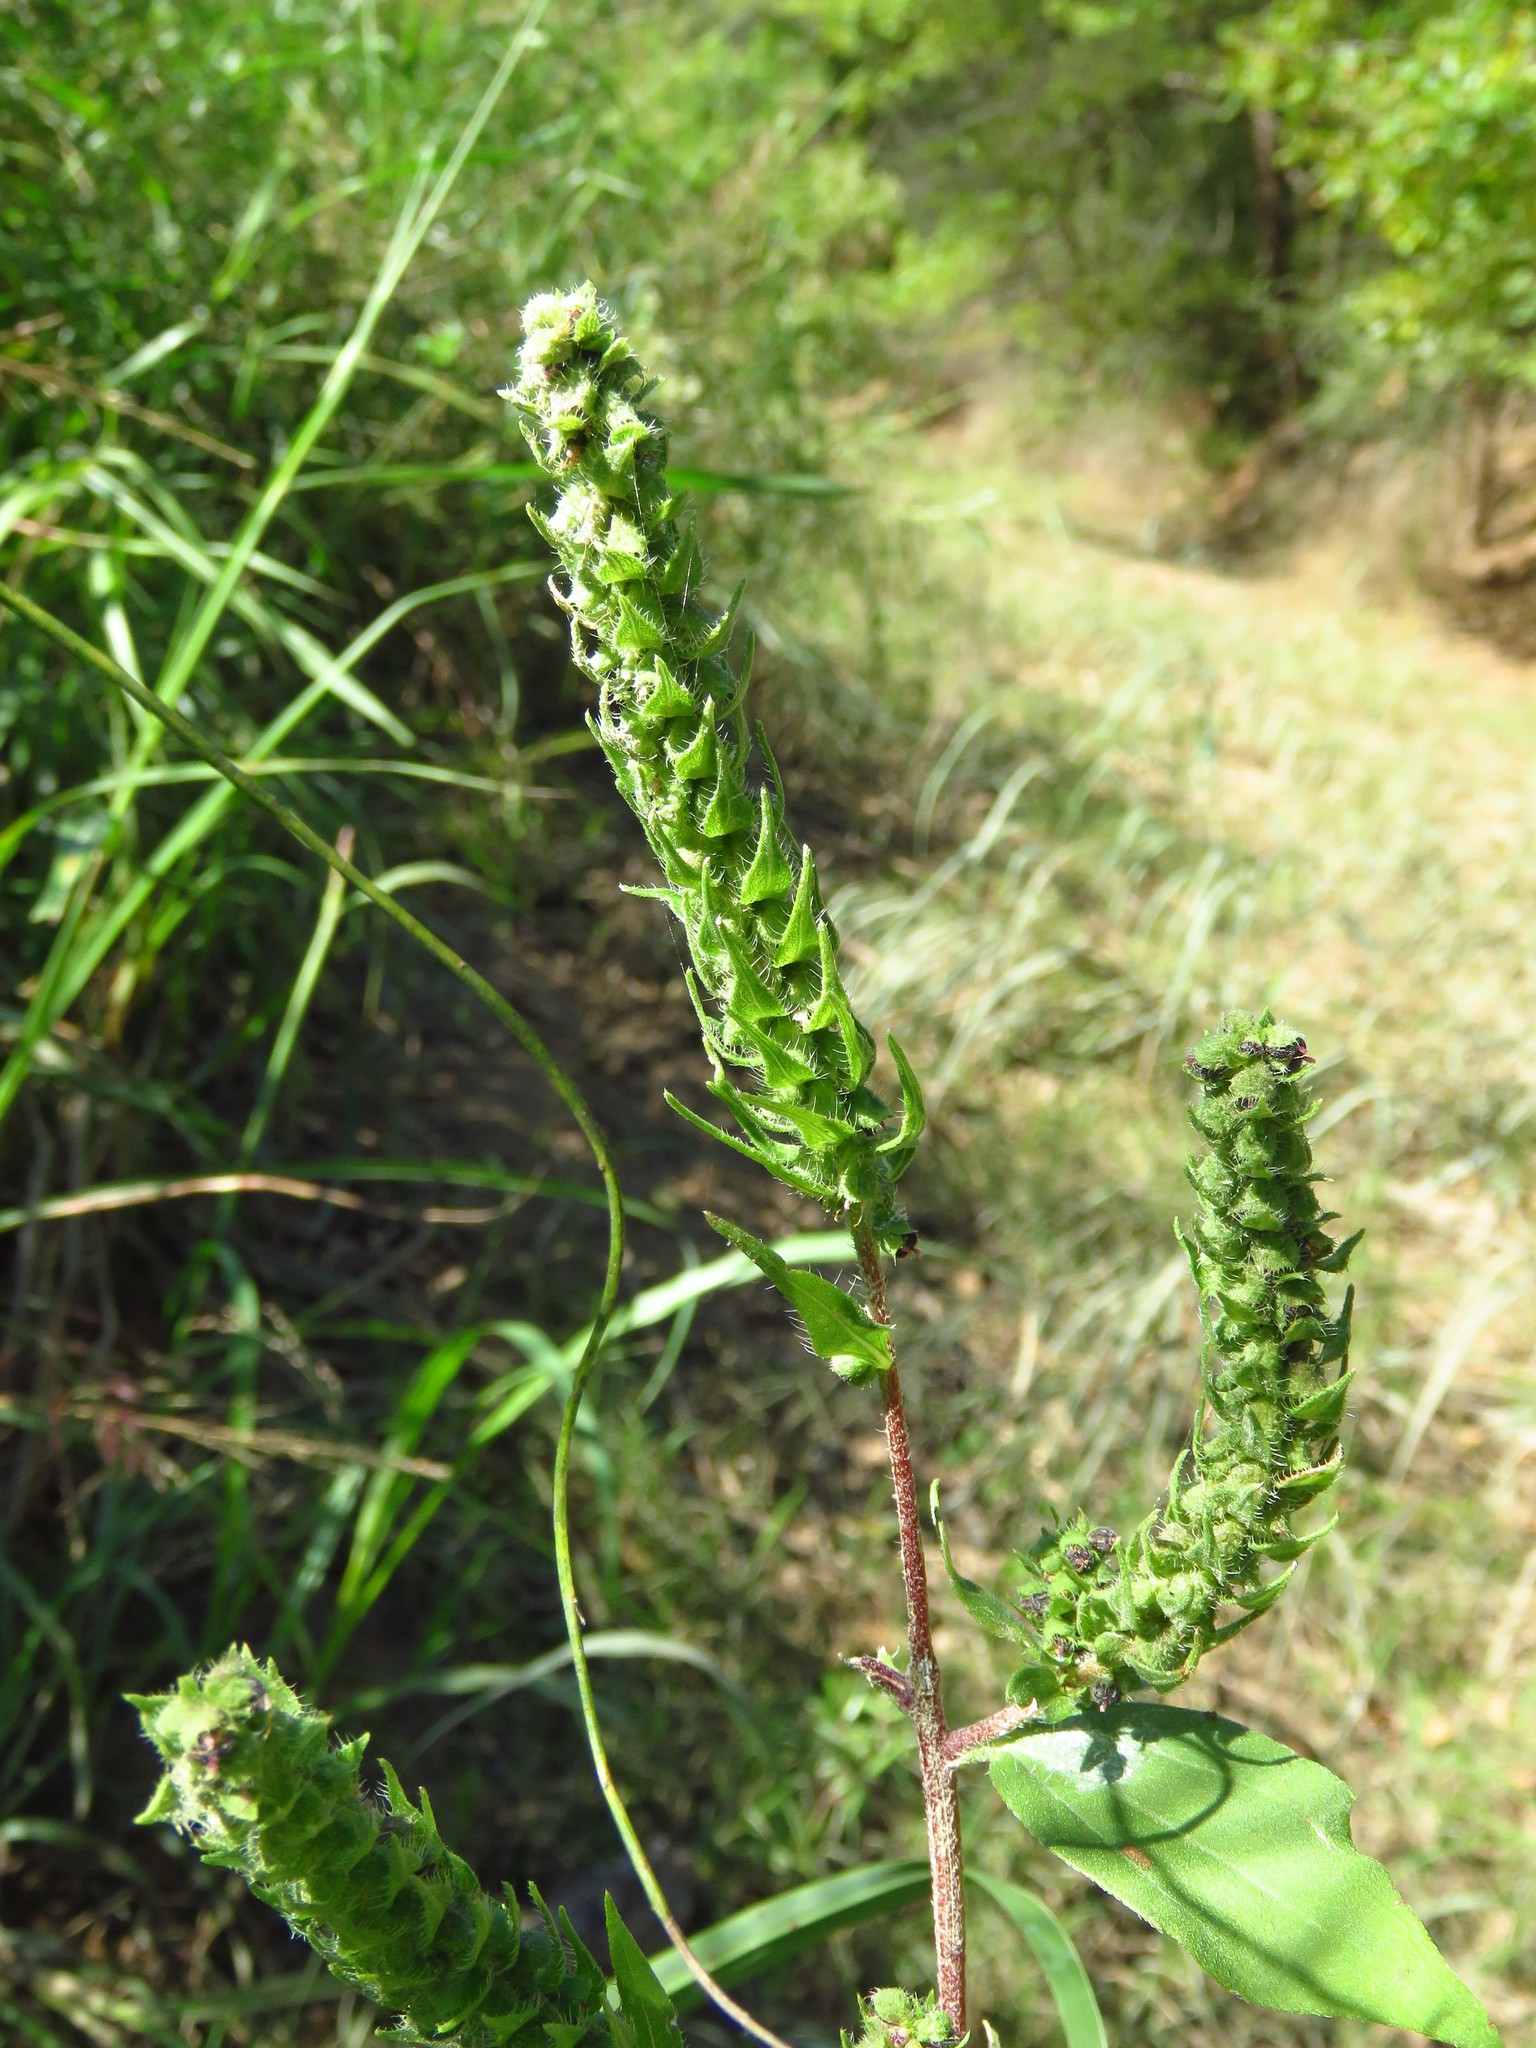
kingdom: Plantae
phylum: Tracheophyta
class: Magnoliopsida
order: Asterales
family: Asteraceae
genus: Iva
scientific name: Iva annua
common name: Marsh-elder
